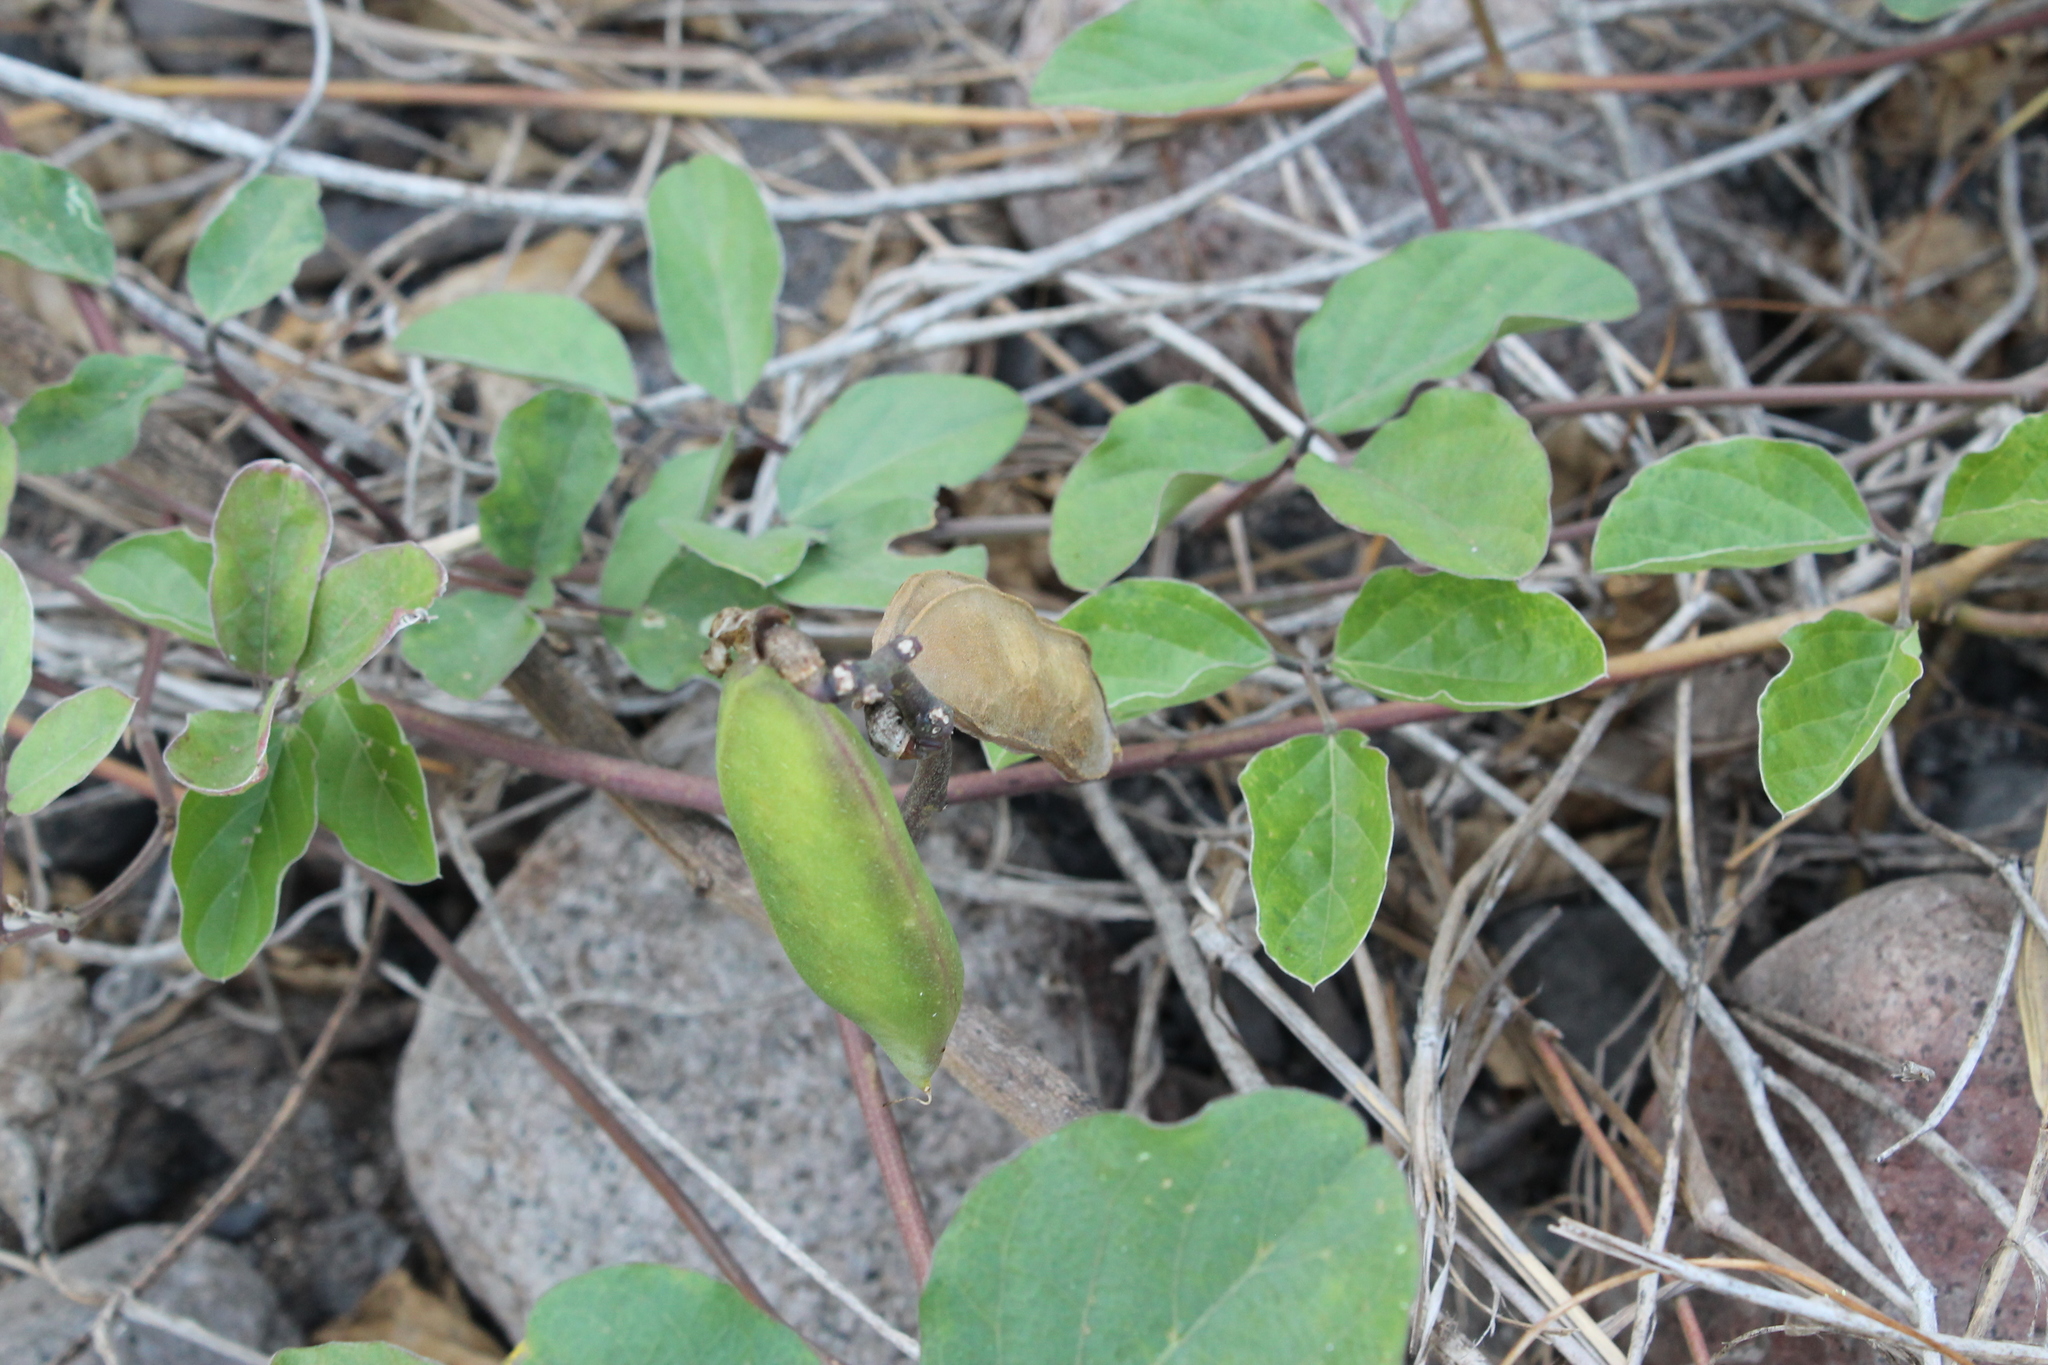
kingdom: Plantae
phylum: Tracheophyta
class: Magnoliopsida
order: Fabales
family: Fabaceae
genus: Canavalia
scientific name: Canavalia rosea
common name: Beach-bean
